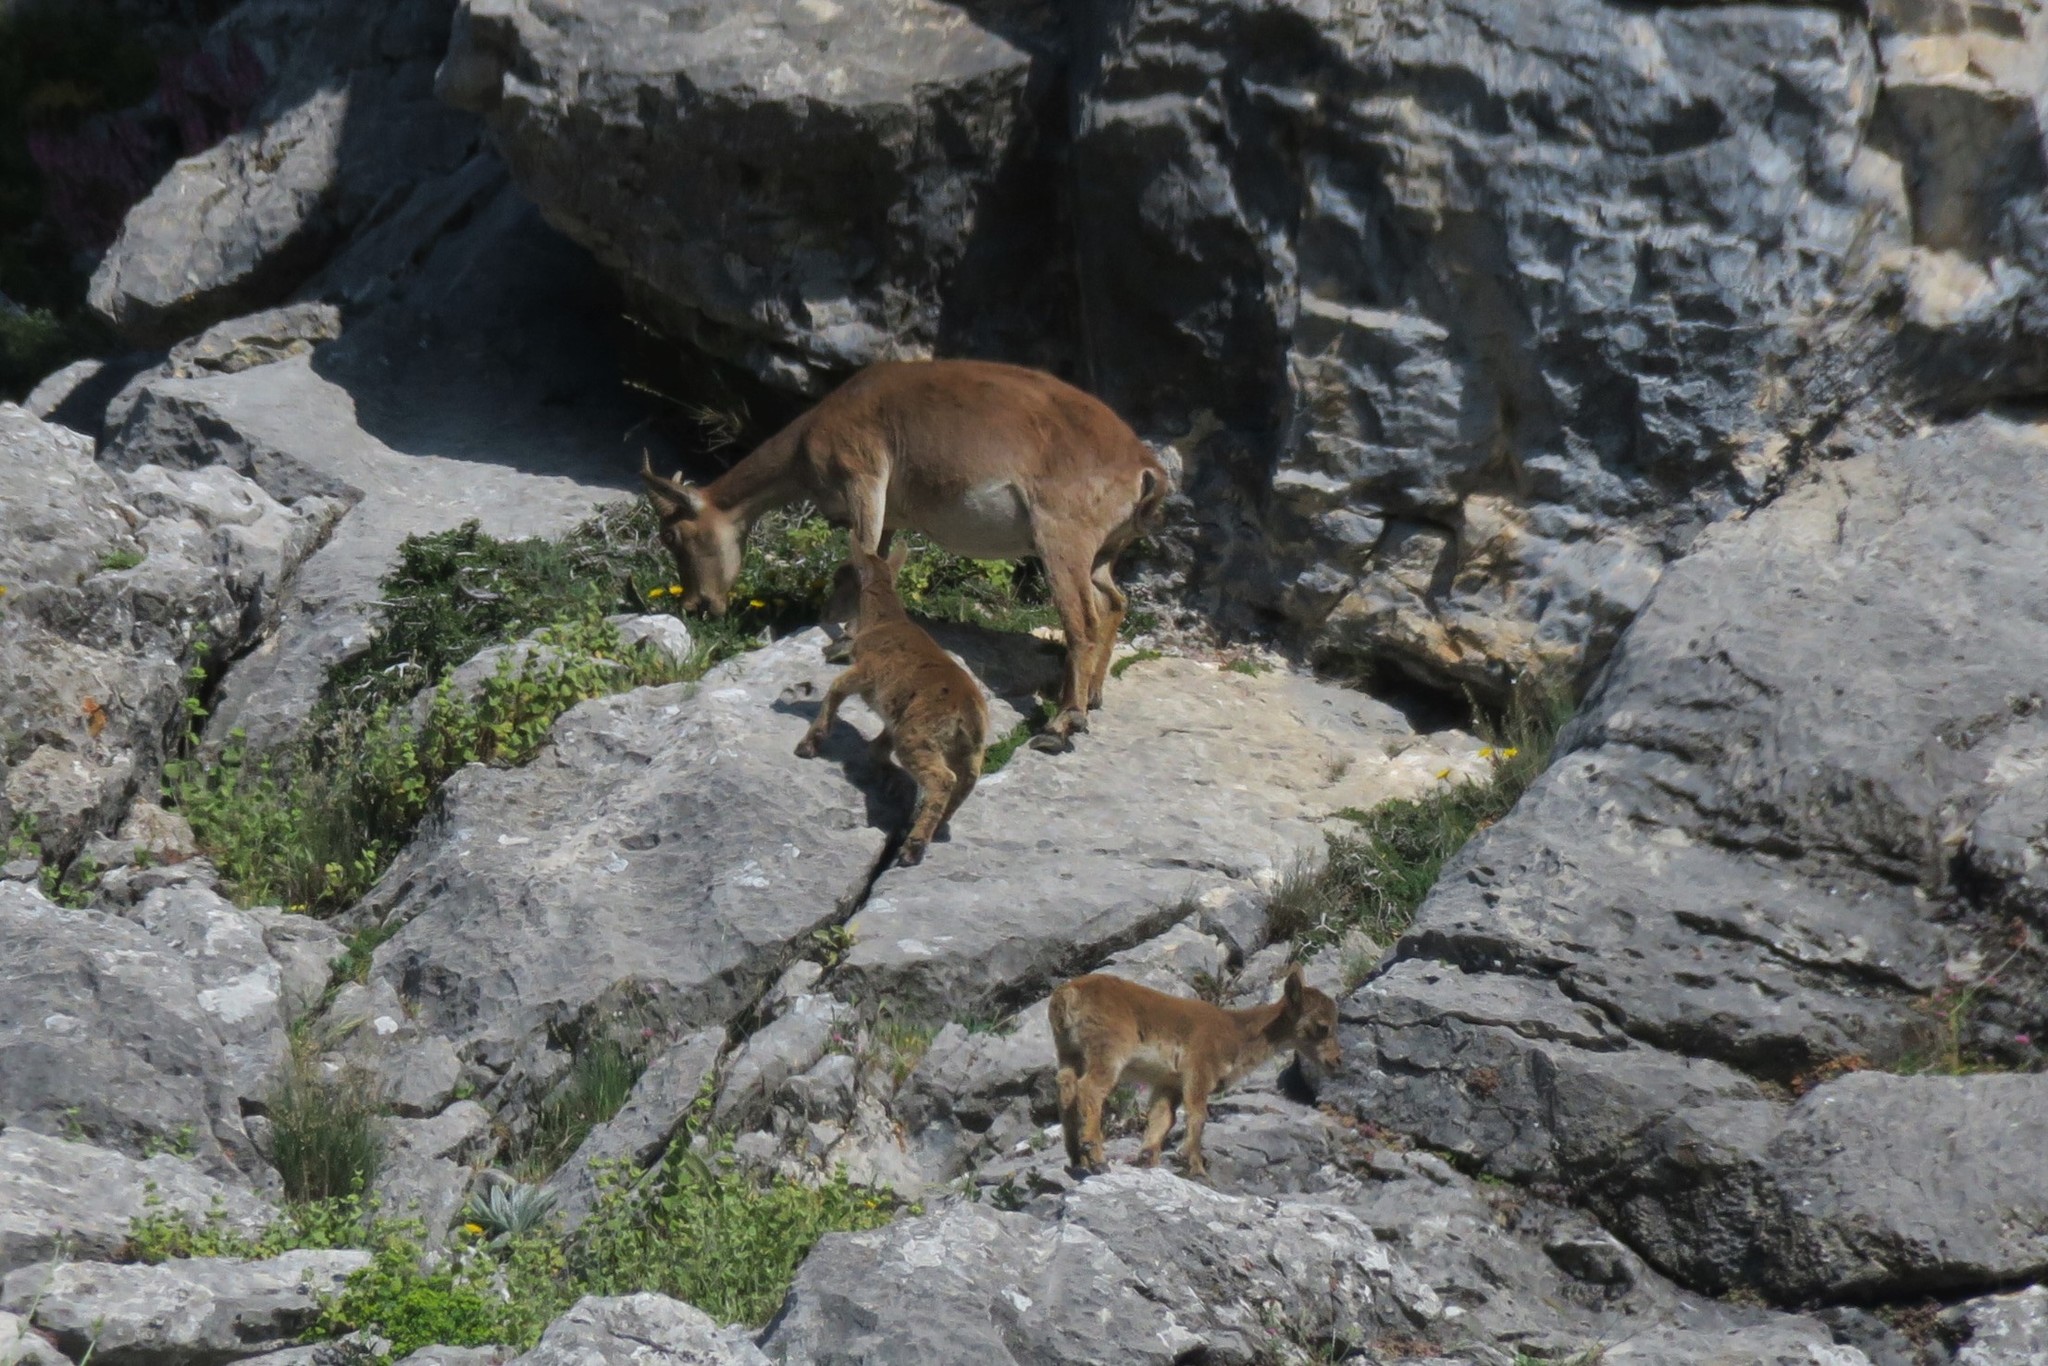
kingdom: Animalia
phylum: Chordata
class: Mammalia
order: Artiodactyla
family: Bovidae
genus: Capra
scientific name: Capra pyrenaica
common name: Spanish ibex
